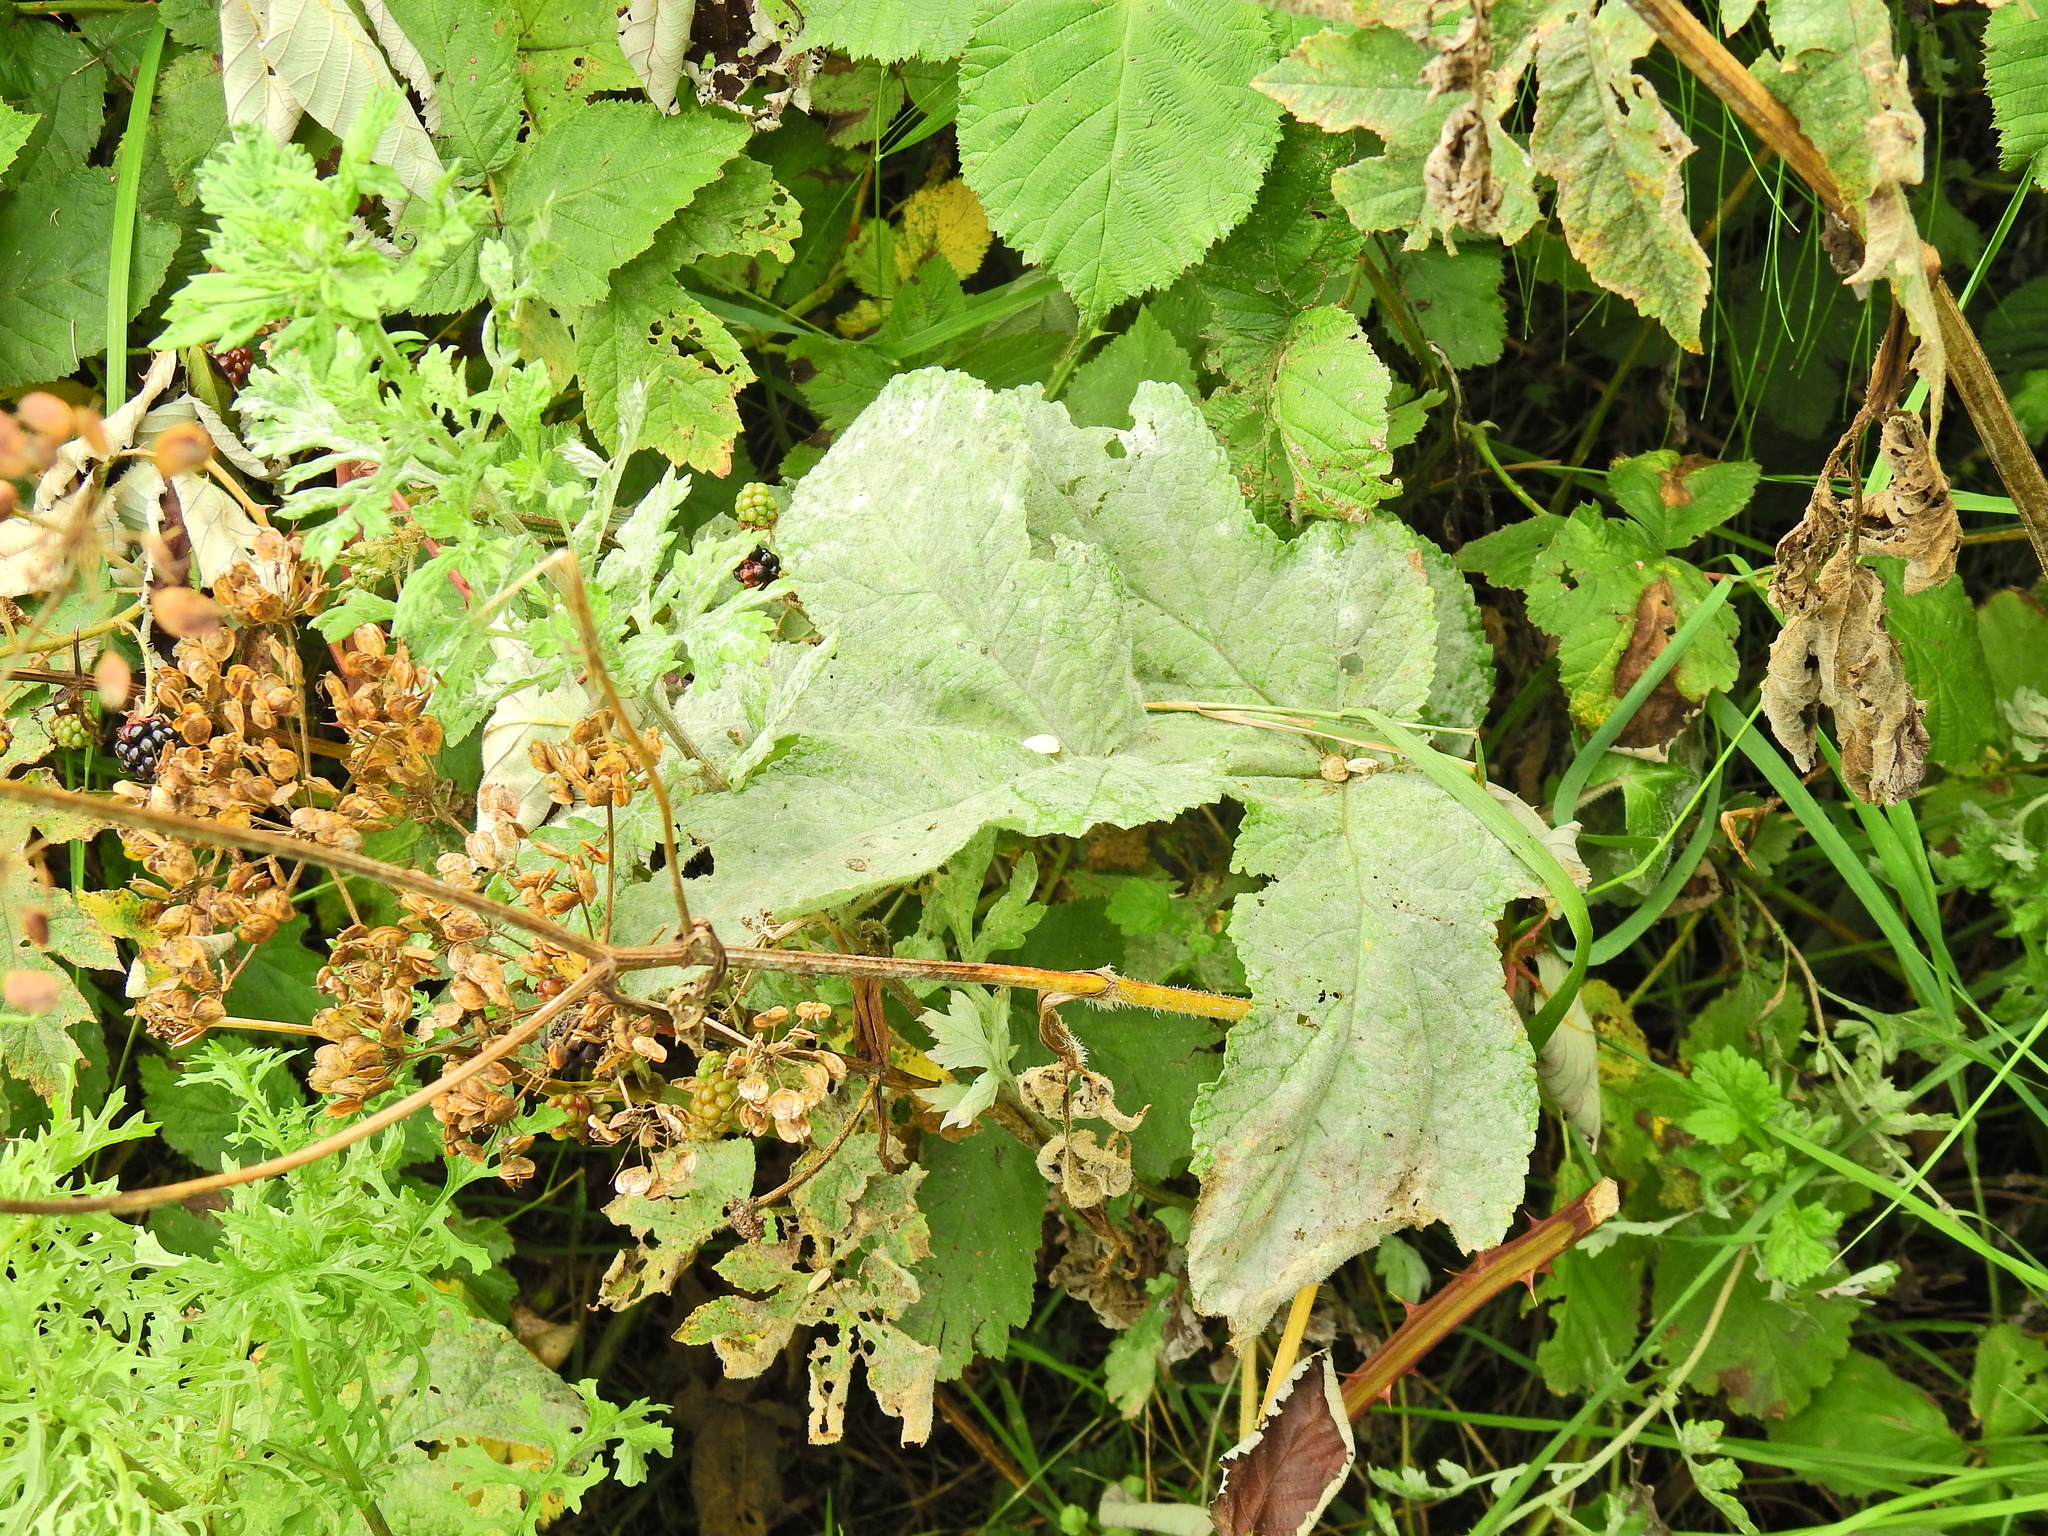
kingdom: Fungi
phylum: Ascomycota
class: Leotiomycetes
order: Helotiales
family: Erysiphaceae
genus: Erysiphe
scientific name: Erysiphe heraclei
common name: Umbellifer mildew
